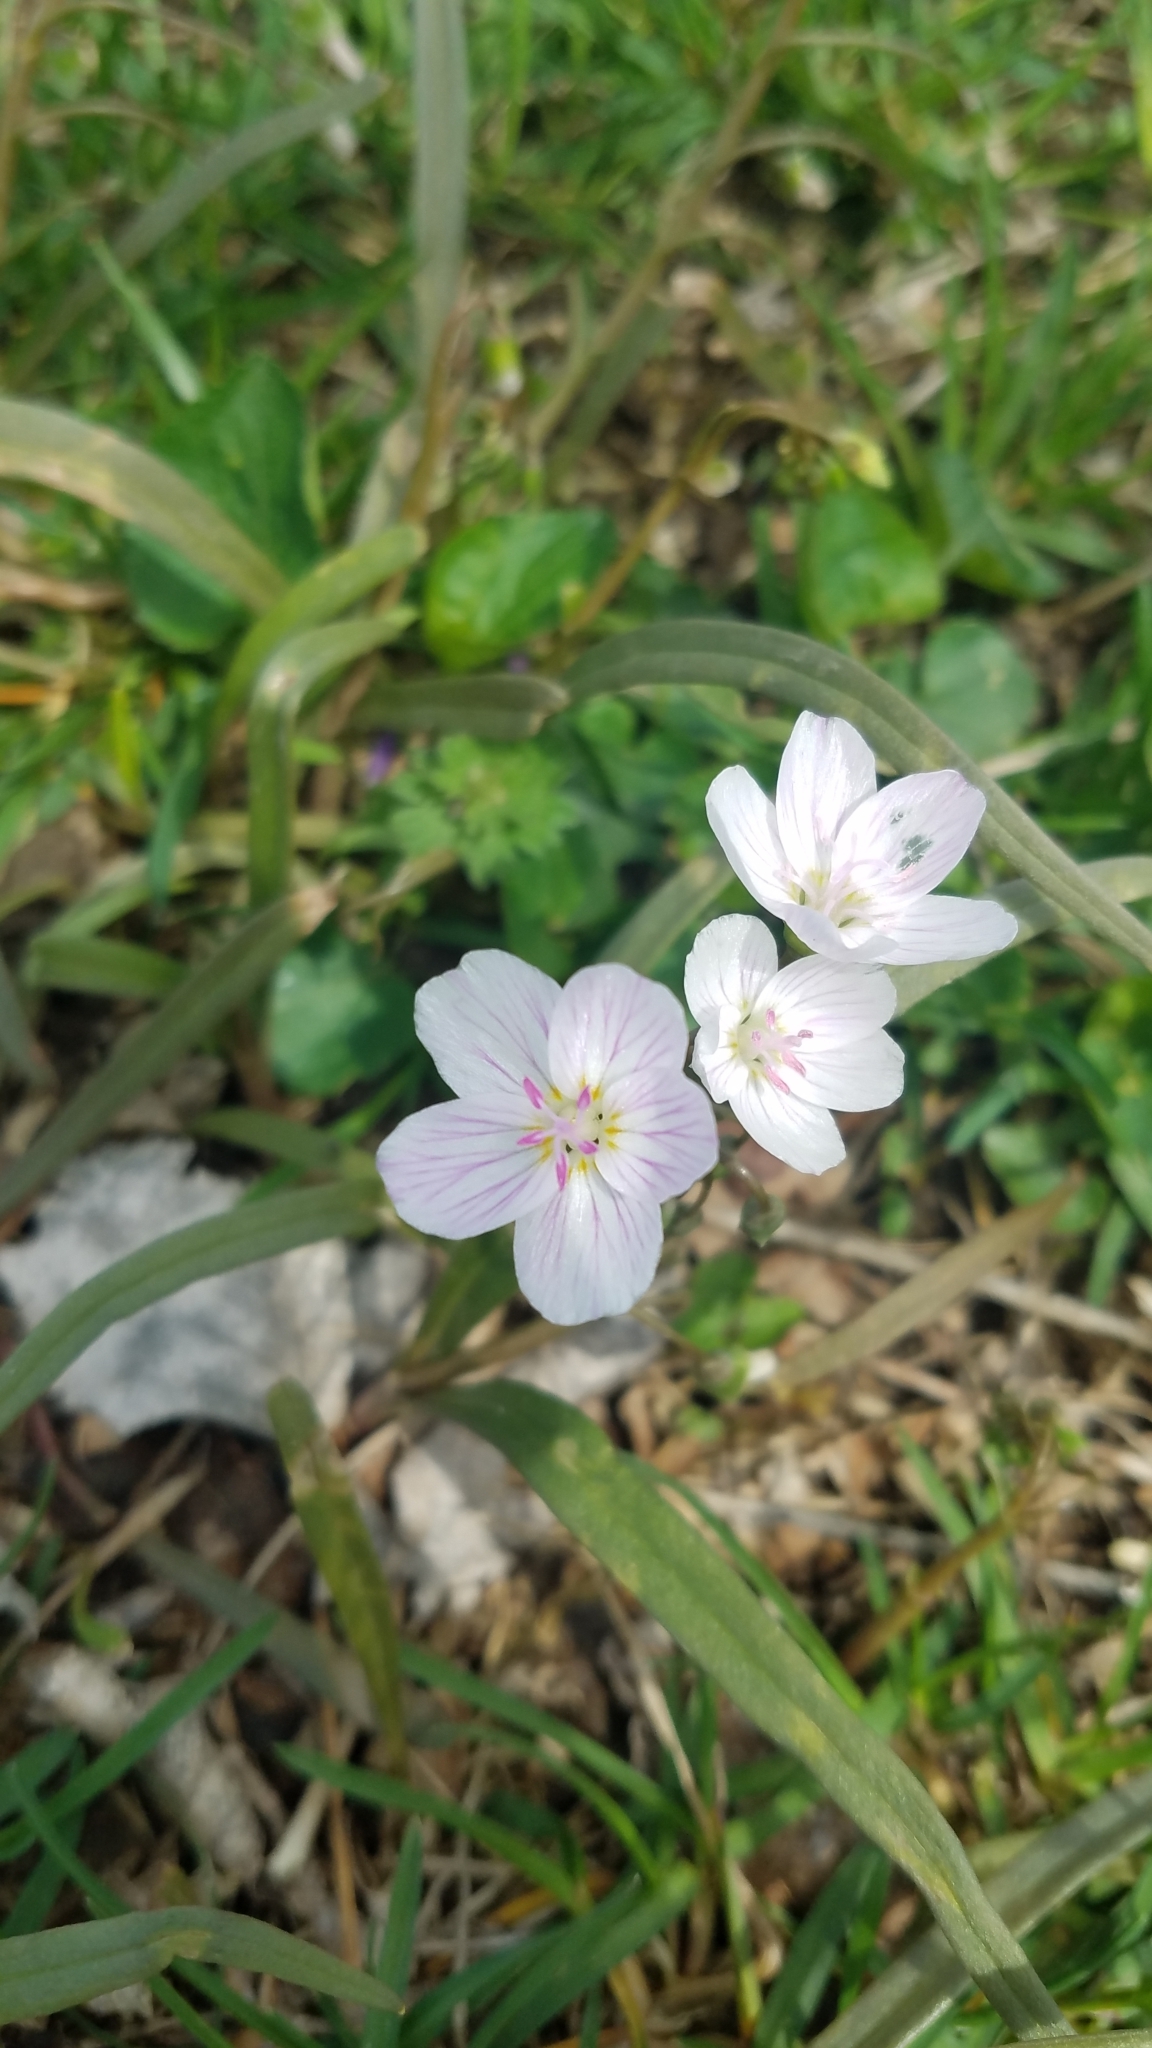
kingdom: Plantae
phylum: Tracheophyta
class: Magnoliopsida
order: Caryophyllales
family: Montiaceae
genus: Claytonia
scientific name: Claytonia virginica
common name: Virginia springbeauty
